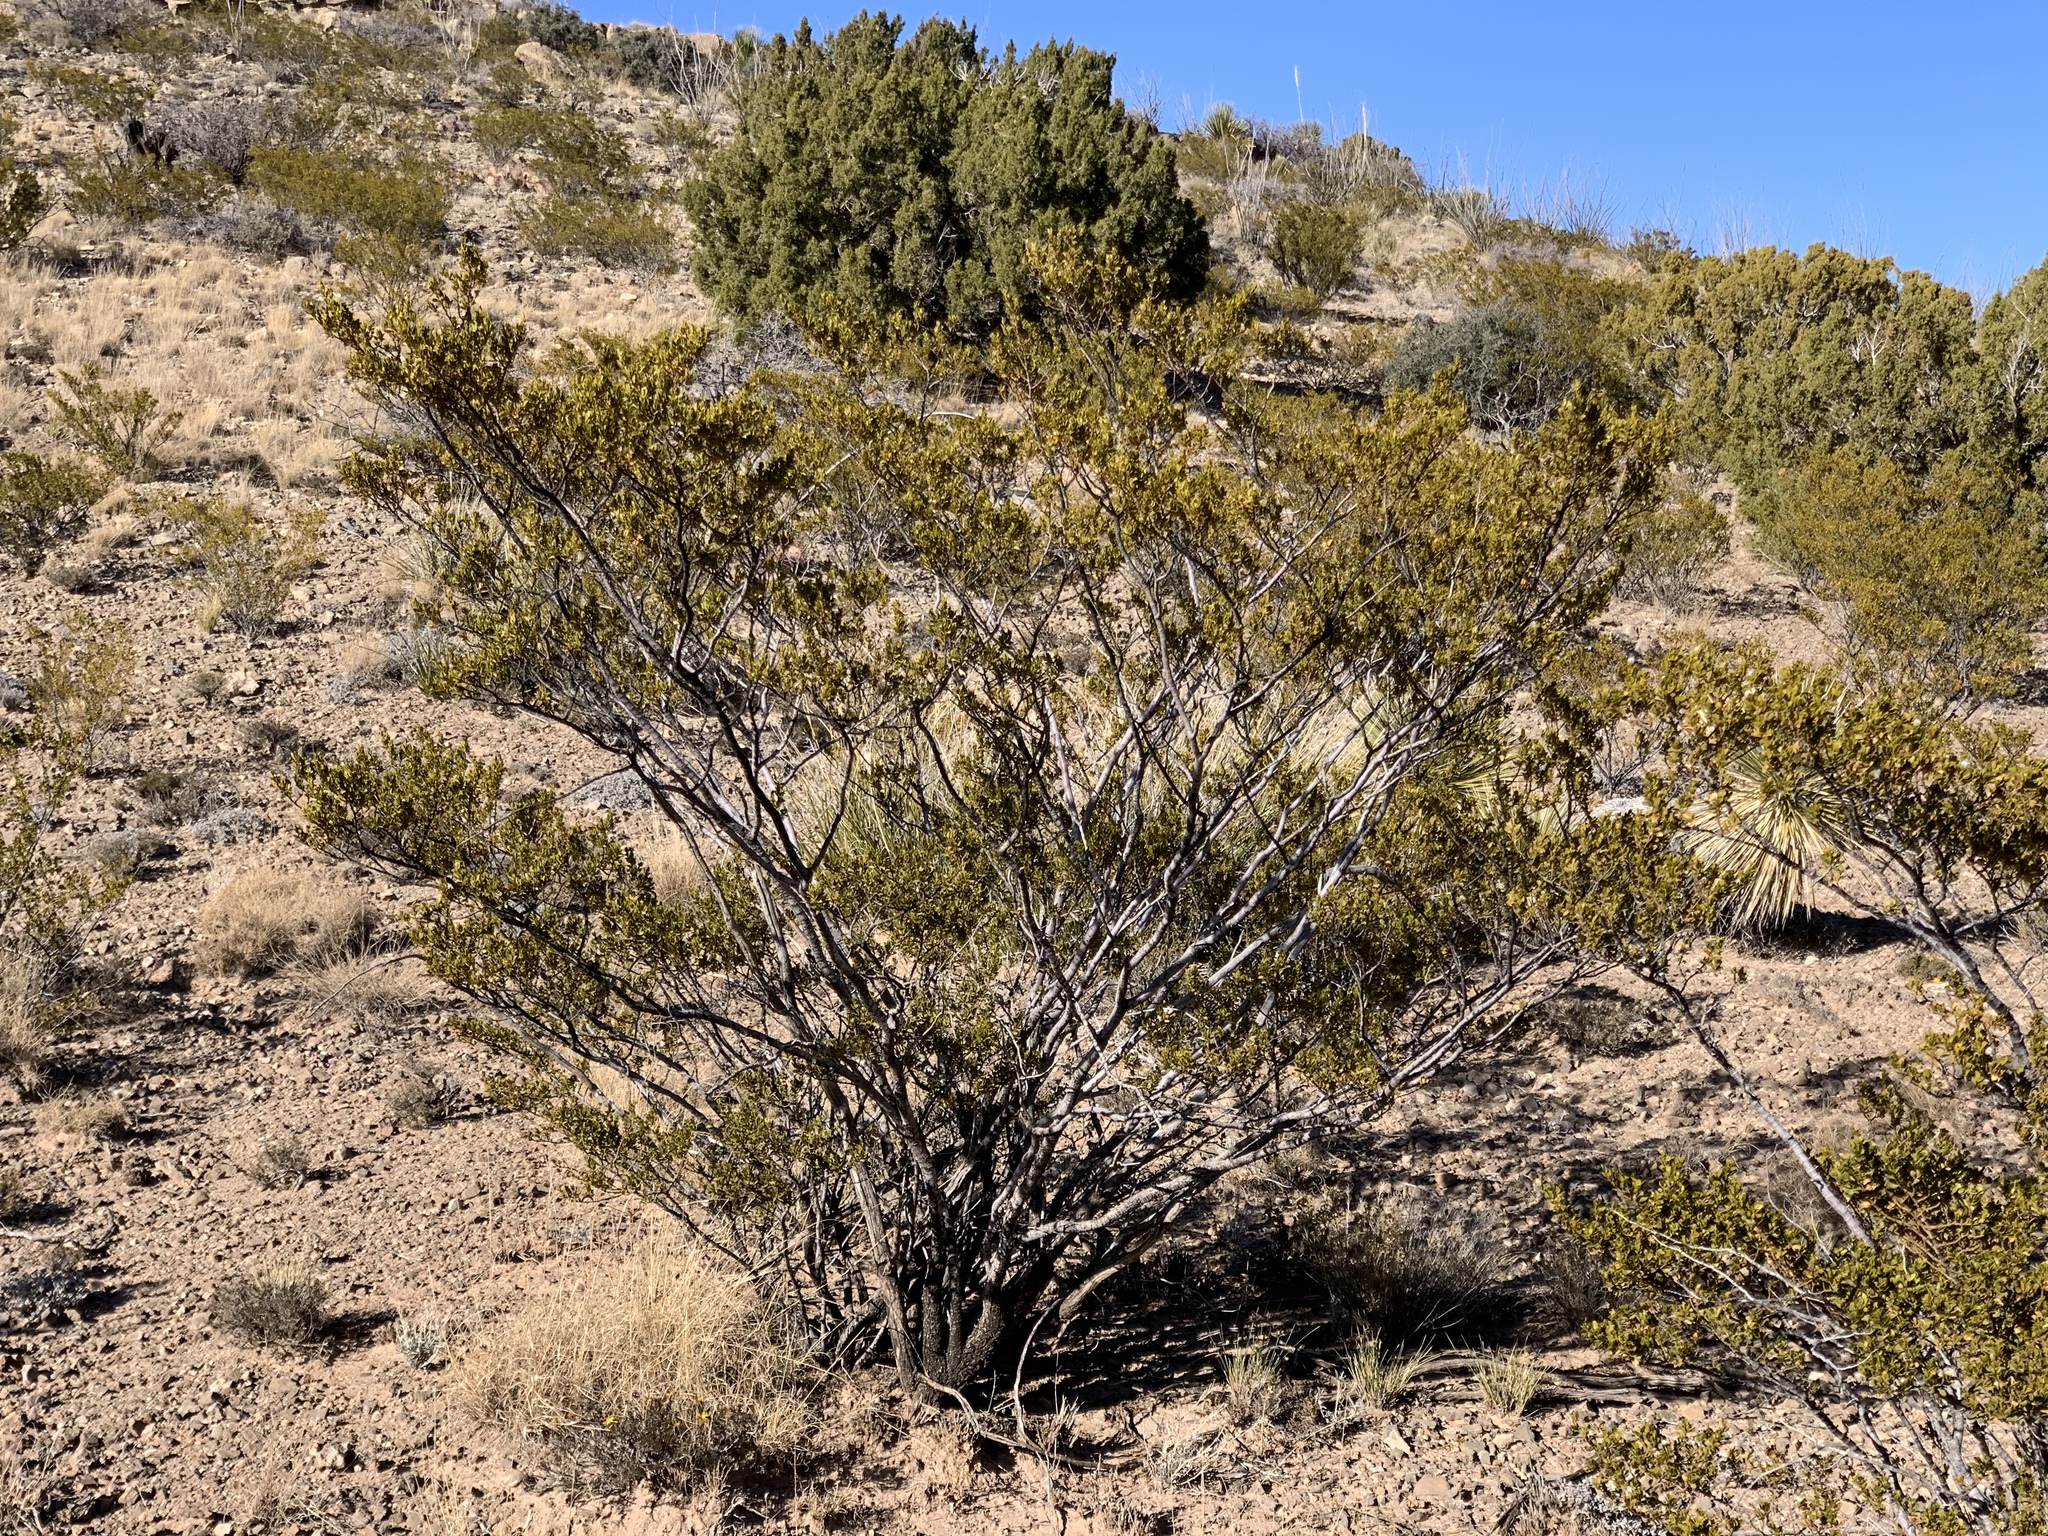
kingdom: Plantae
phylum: Tracheophyta
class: Magnoliopsida
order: Zygophyllales
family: Zygophyllaceae
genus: Larrea
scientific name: Larrea tridentata
